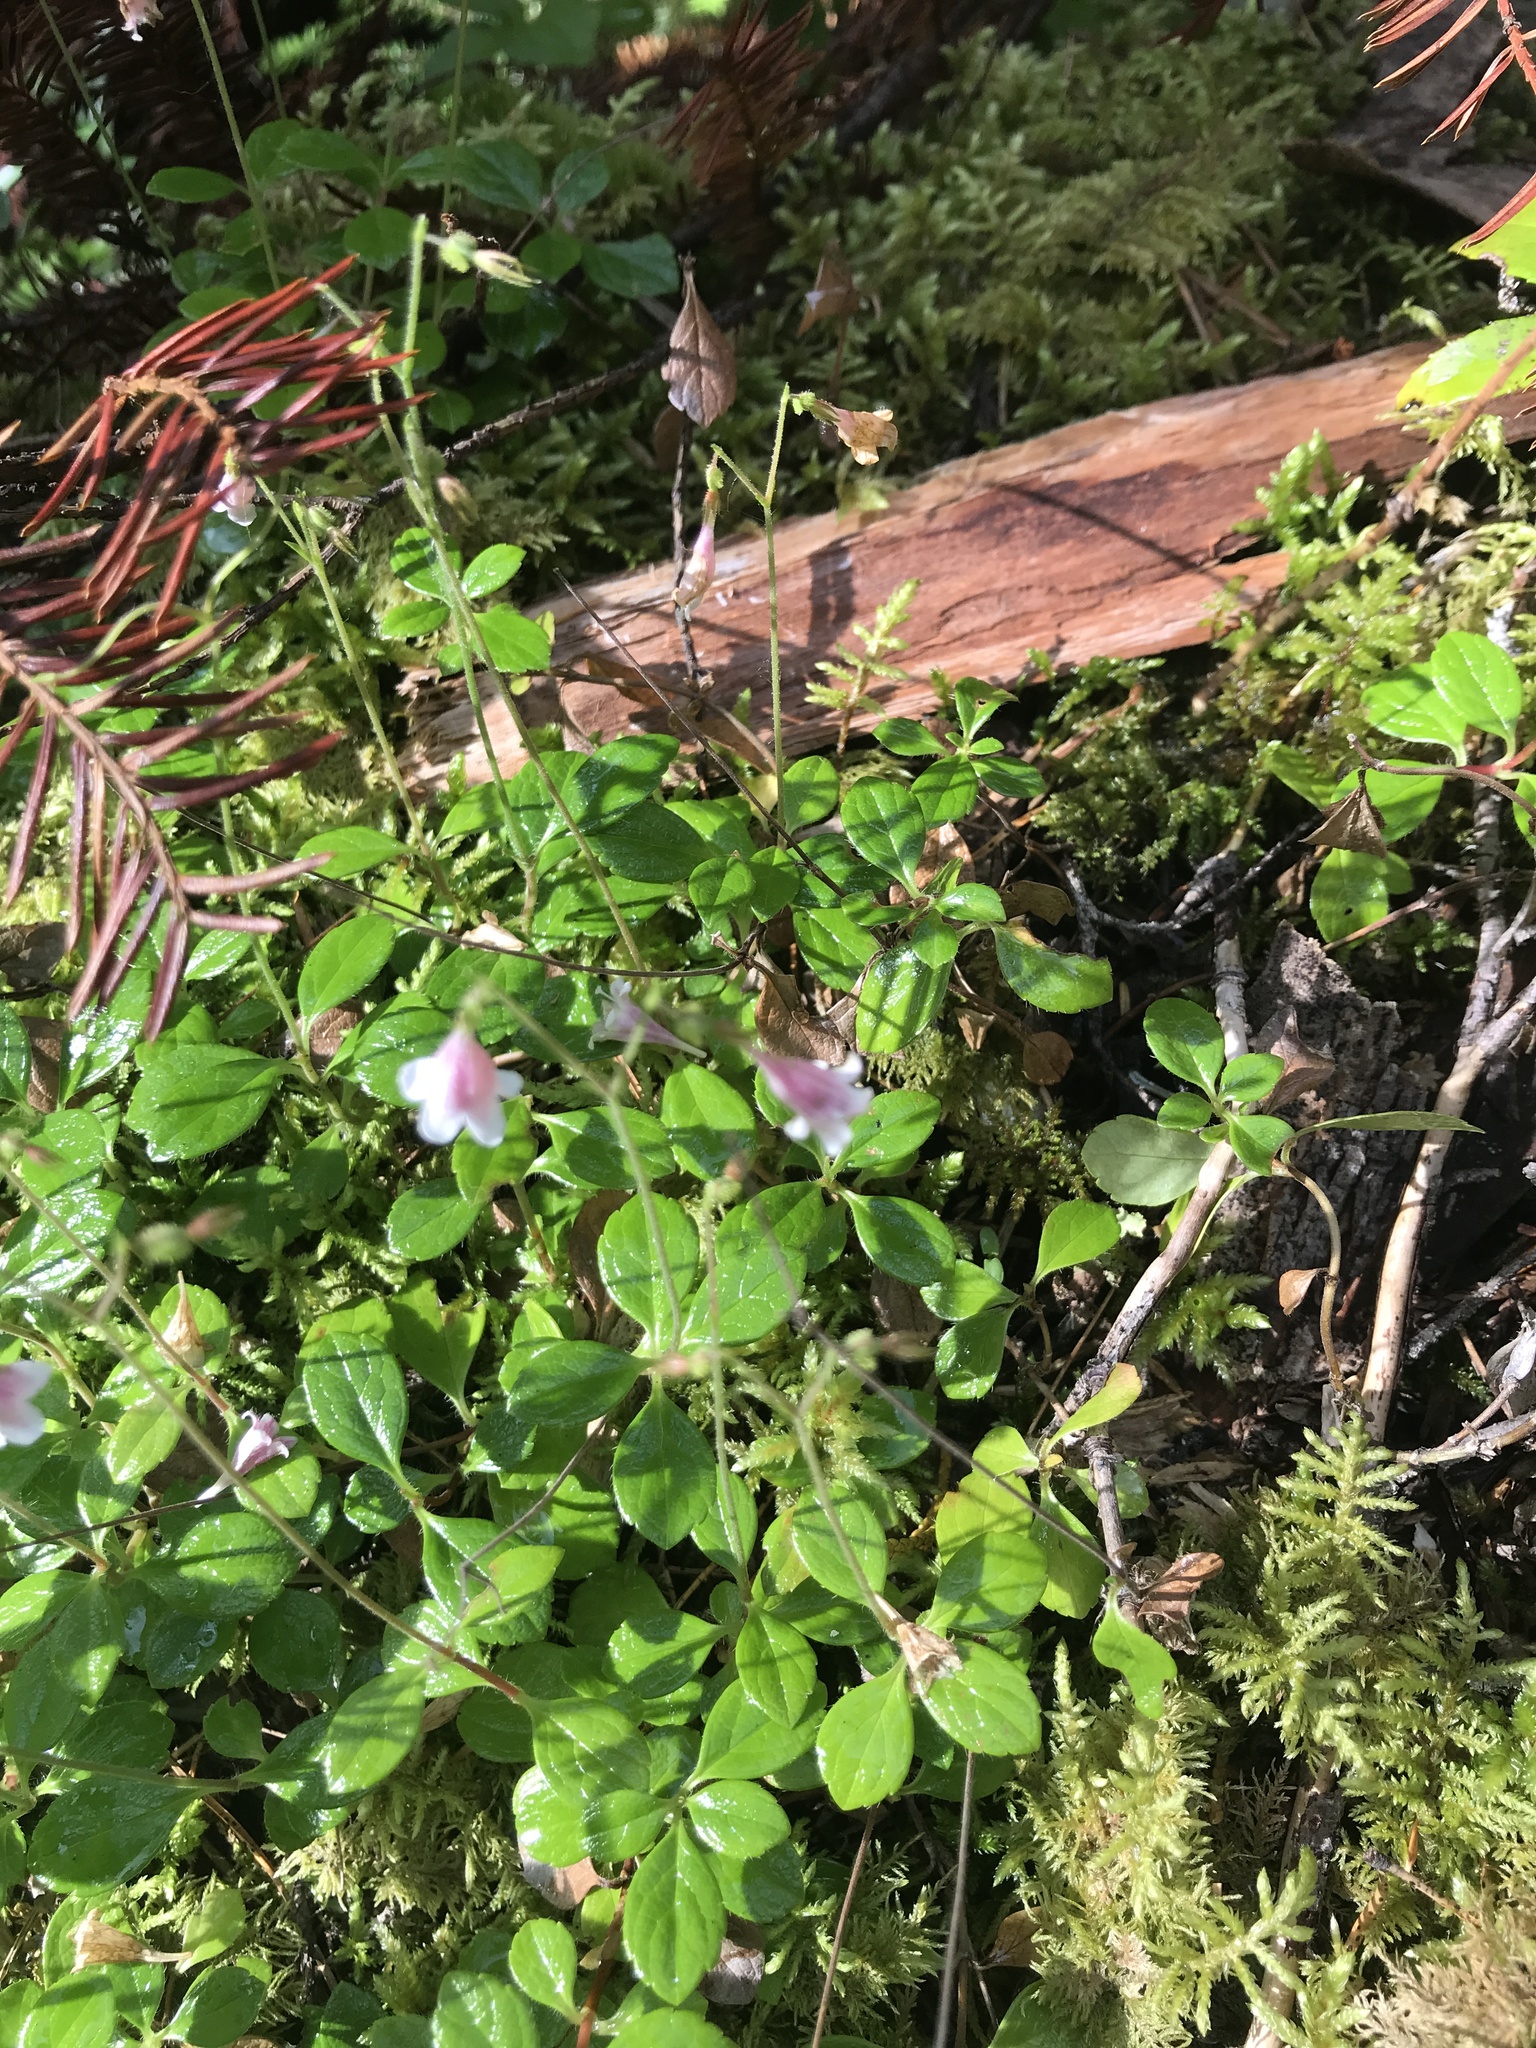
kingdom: Plantae
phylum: Tracheophyta
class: Magnoliopsida
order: Dipsacales
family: Caprifoliaceae
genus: Linnaea
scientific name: Linnaea borealis
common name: Twinflower
